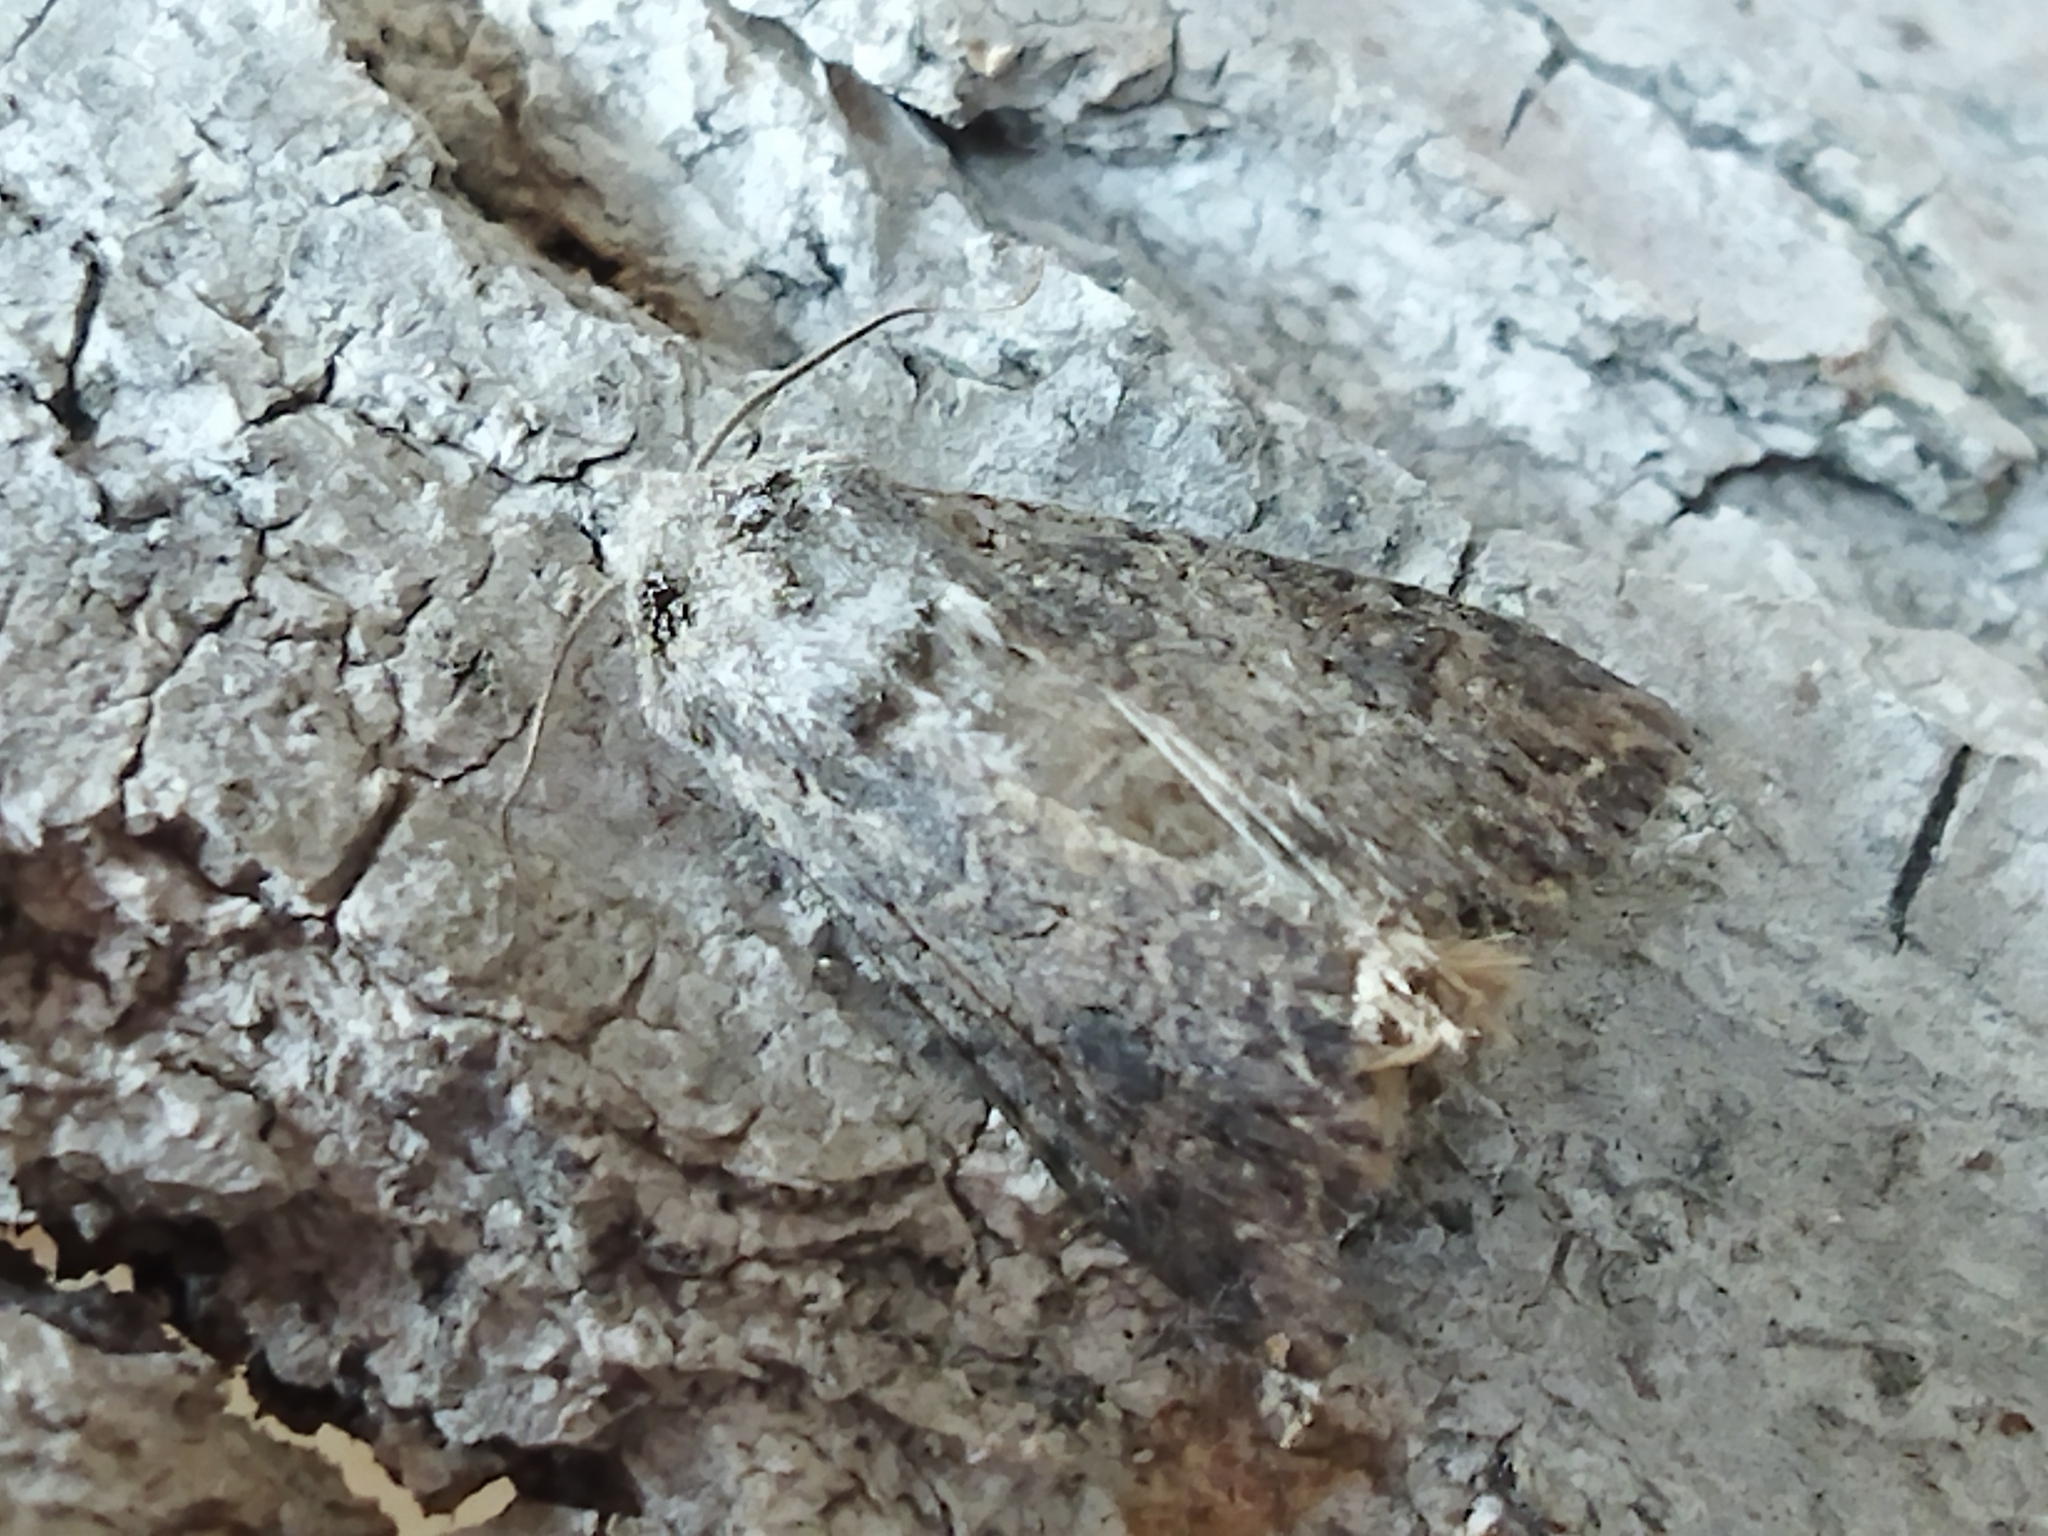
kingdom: Animalia
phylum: Arthropoda
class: Insecta
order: Lepidoptera
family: Noctuidae
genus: Anarta
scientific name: Anarta trifolii
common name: Clover cutworm moth
